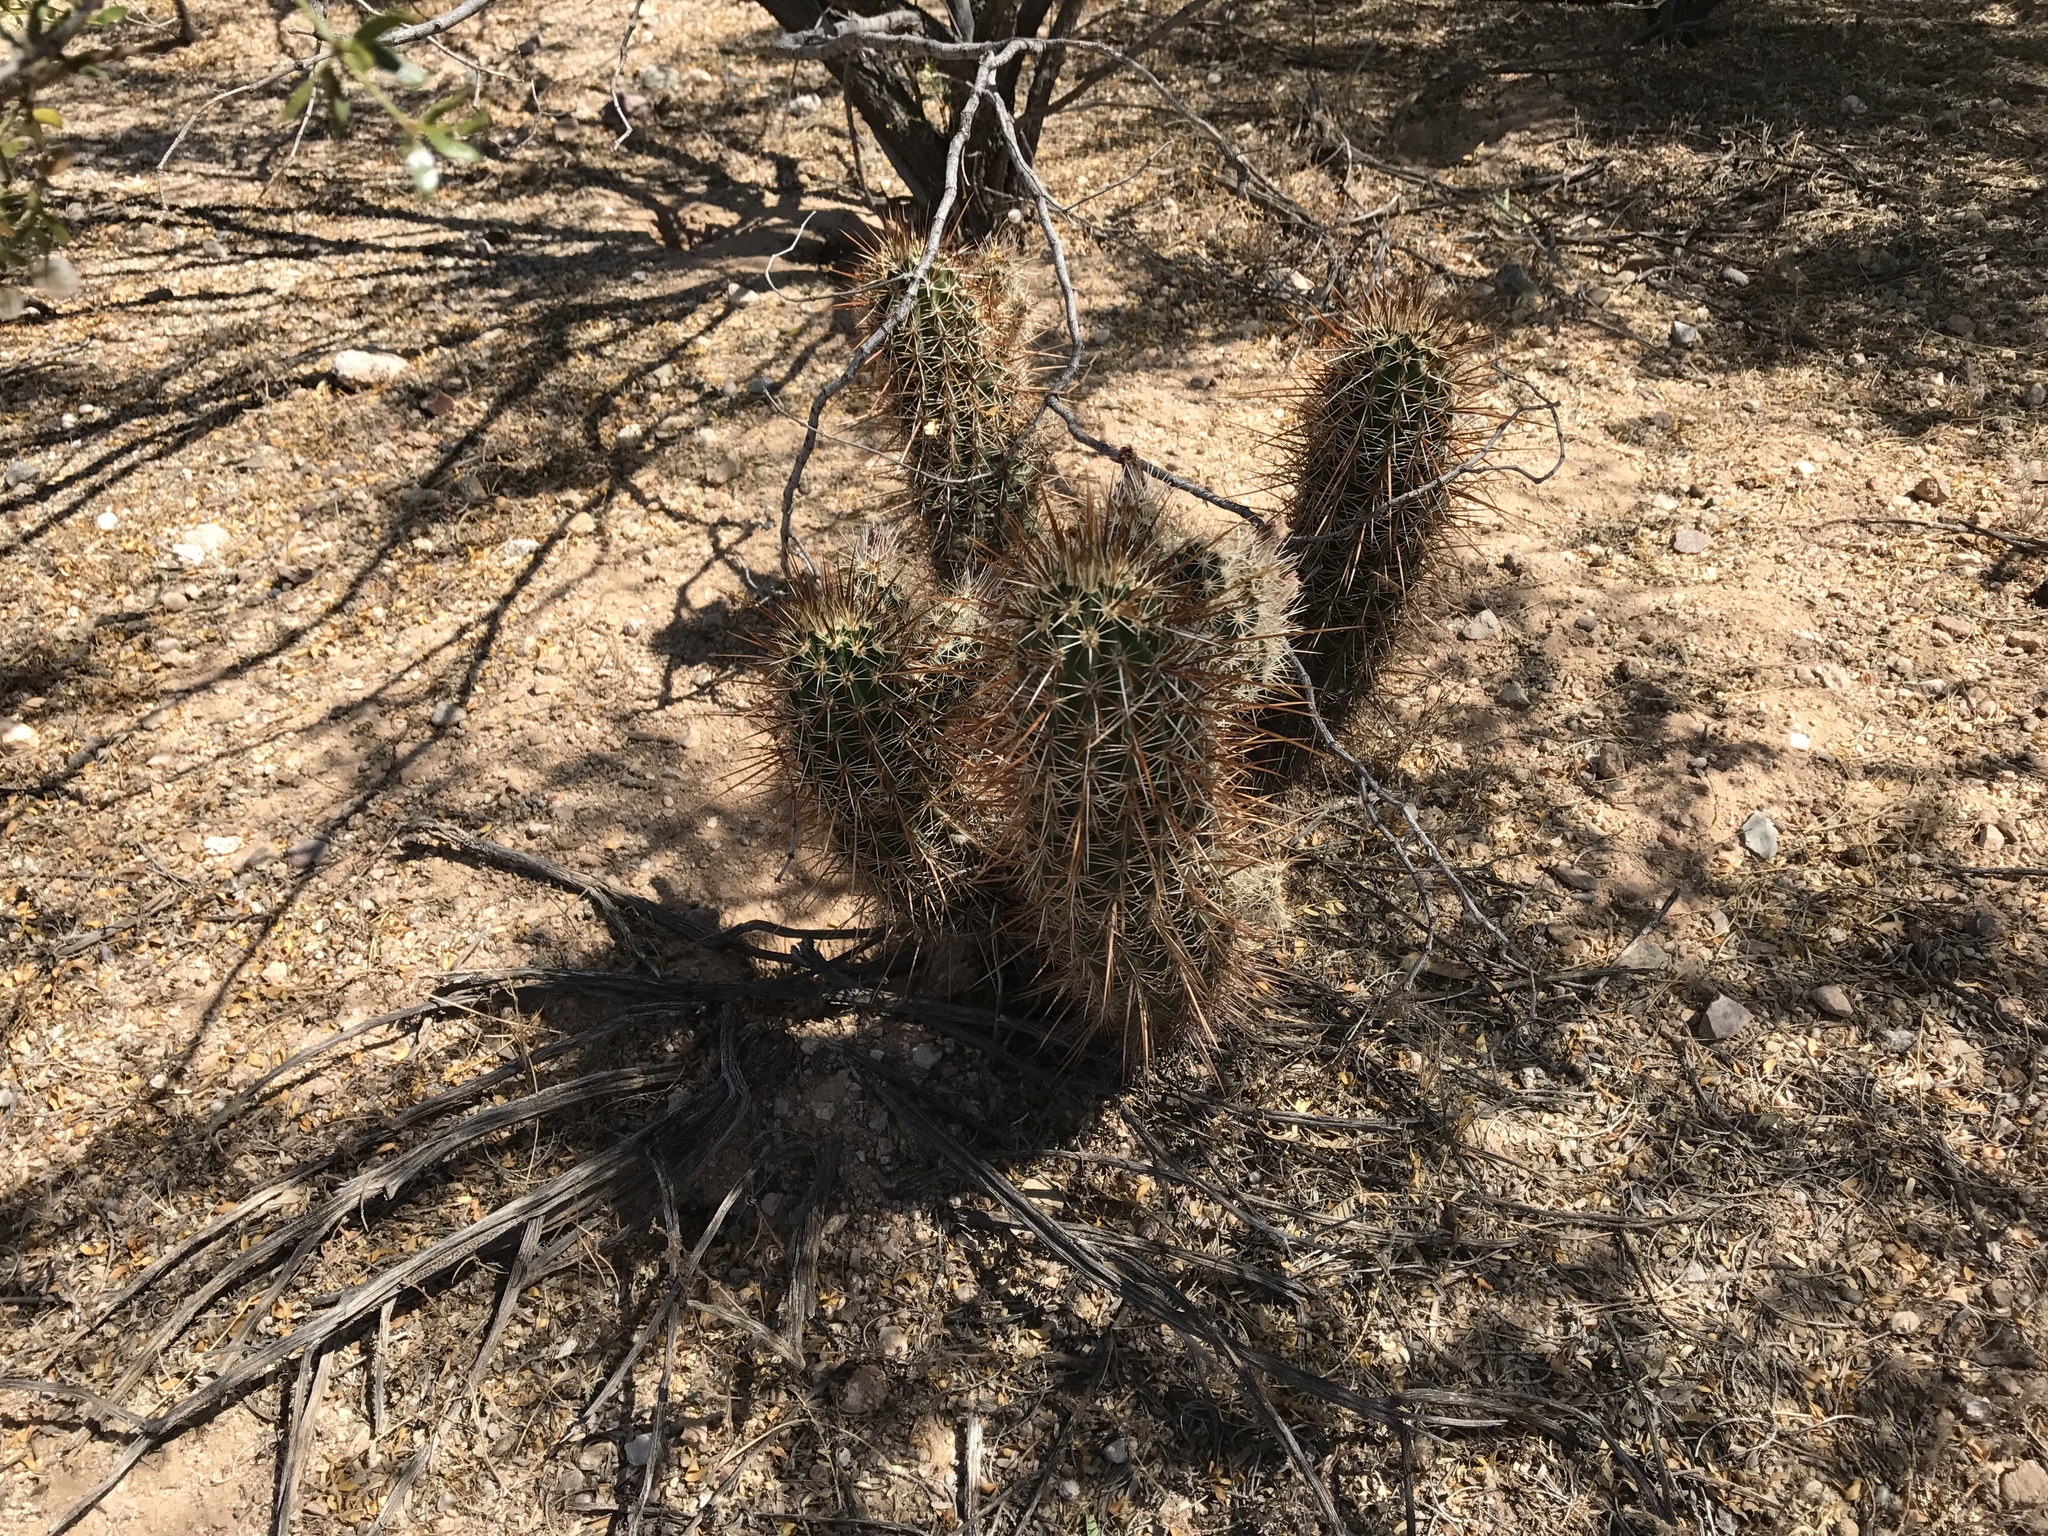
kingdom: Plantae
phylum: Tracheophyta
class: Magnoliopsida
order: Caryophyllales
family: Cactaceae
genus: Echinocereus
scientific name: Echinocereus engelmannii
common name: Engelmann's hedgehog cactus
